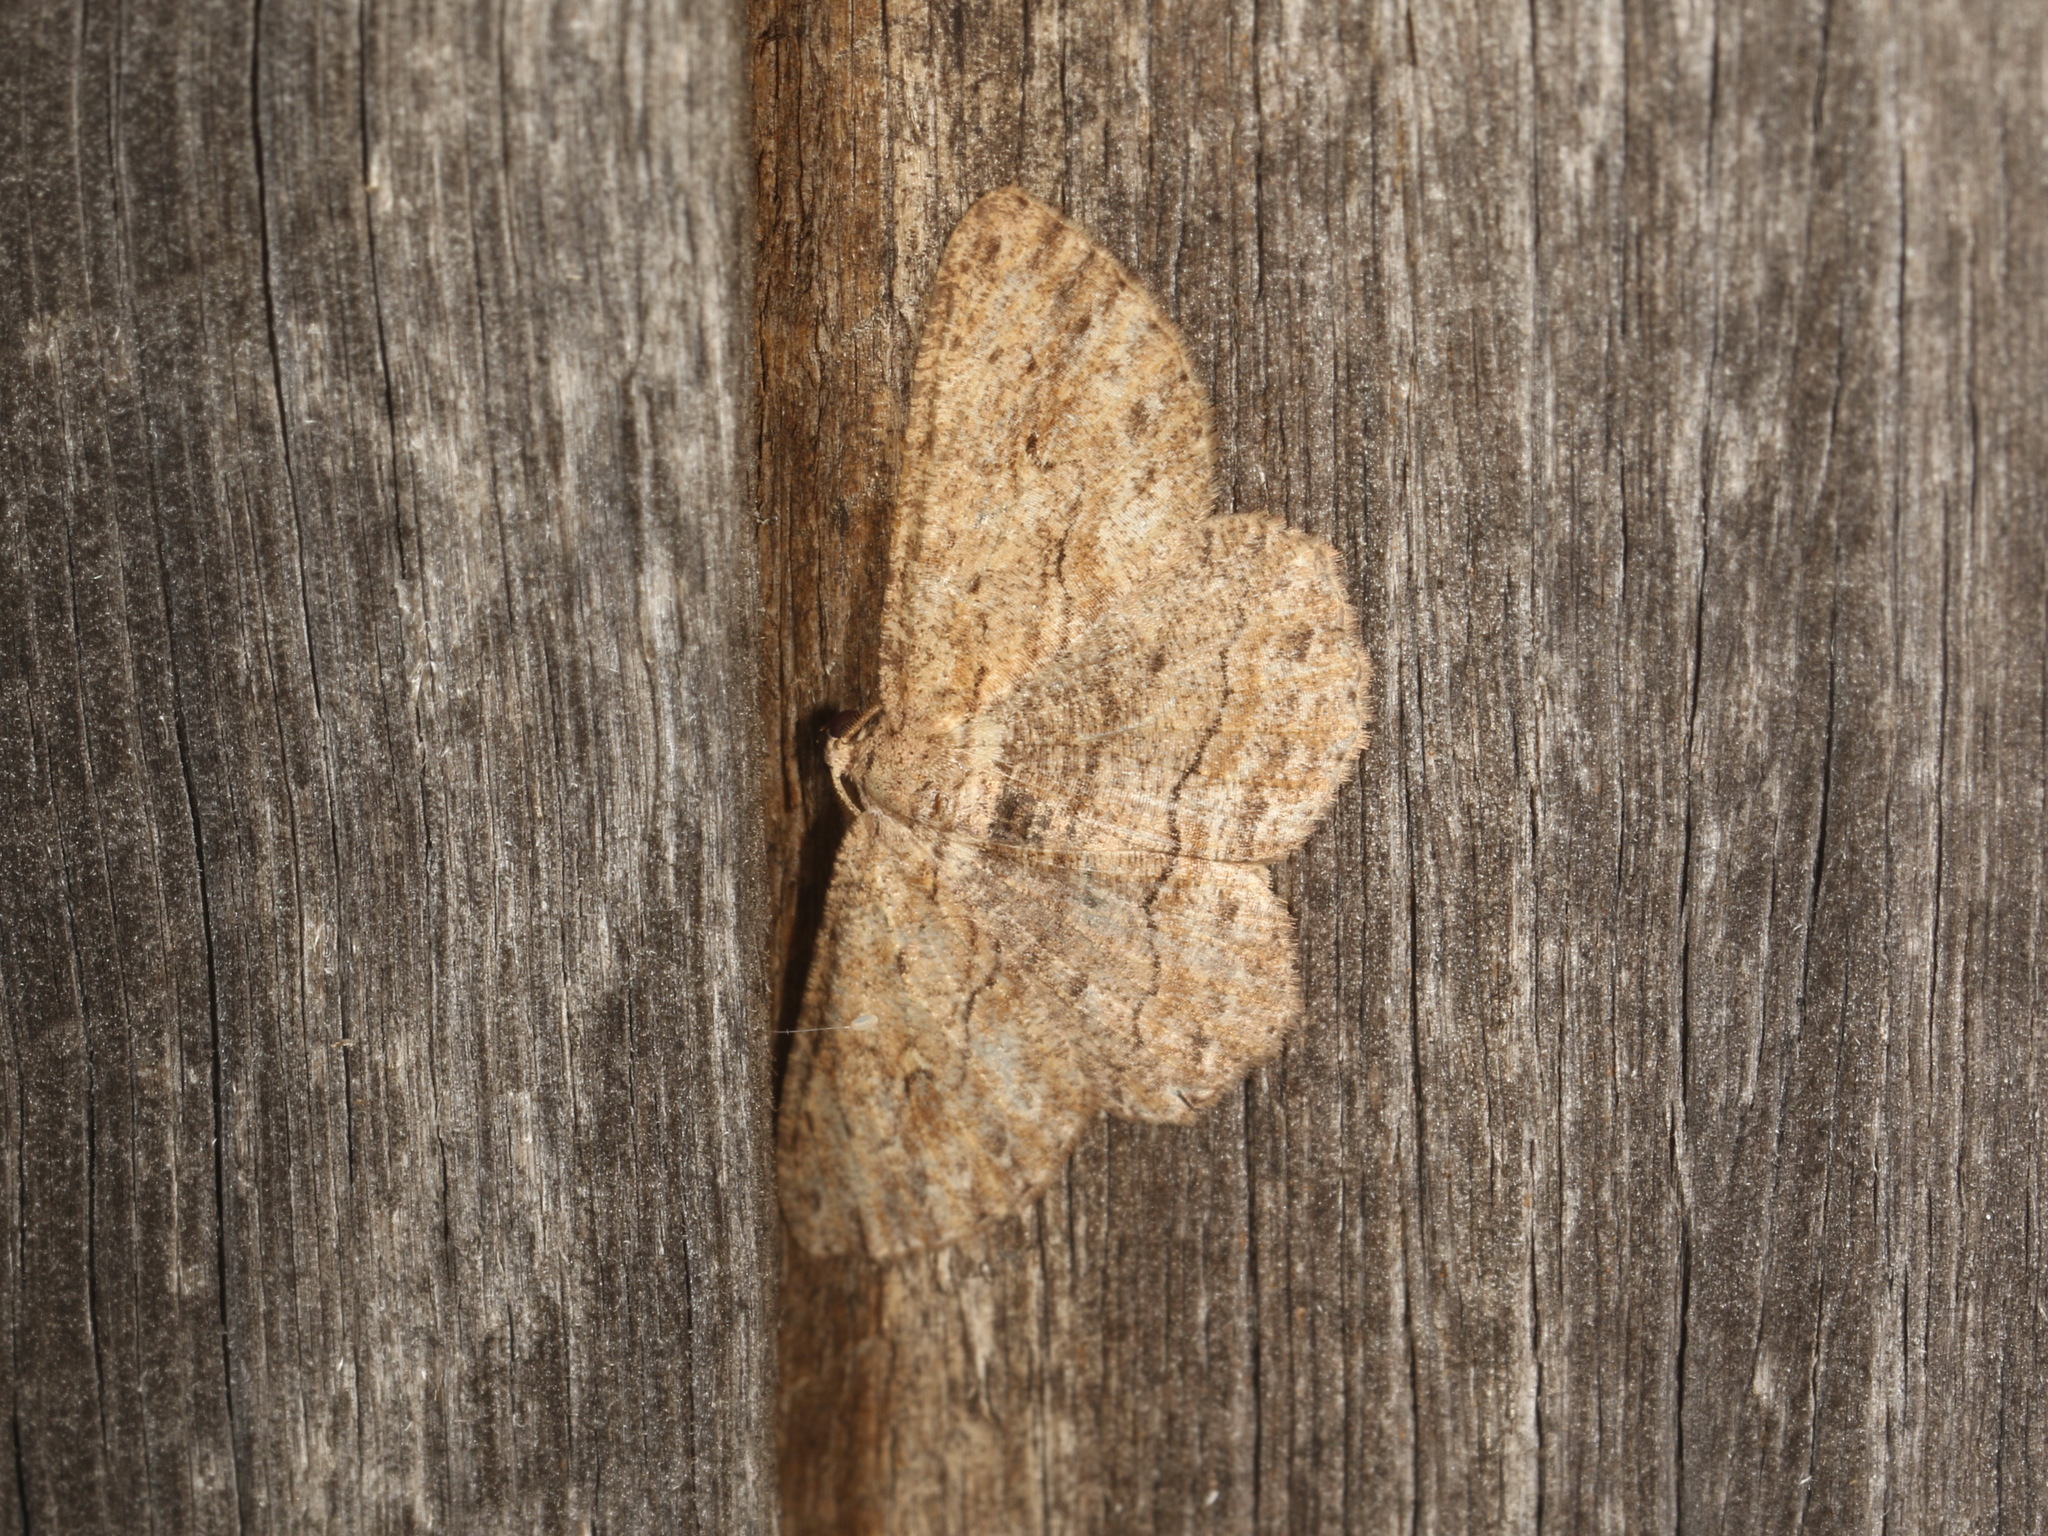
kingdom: Animalia
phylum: Arthropoda
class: Insecta
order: Lepidoptera
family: Geometridae
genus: Ectropis
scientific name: Ectropis excursaria
